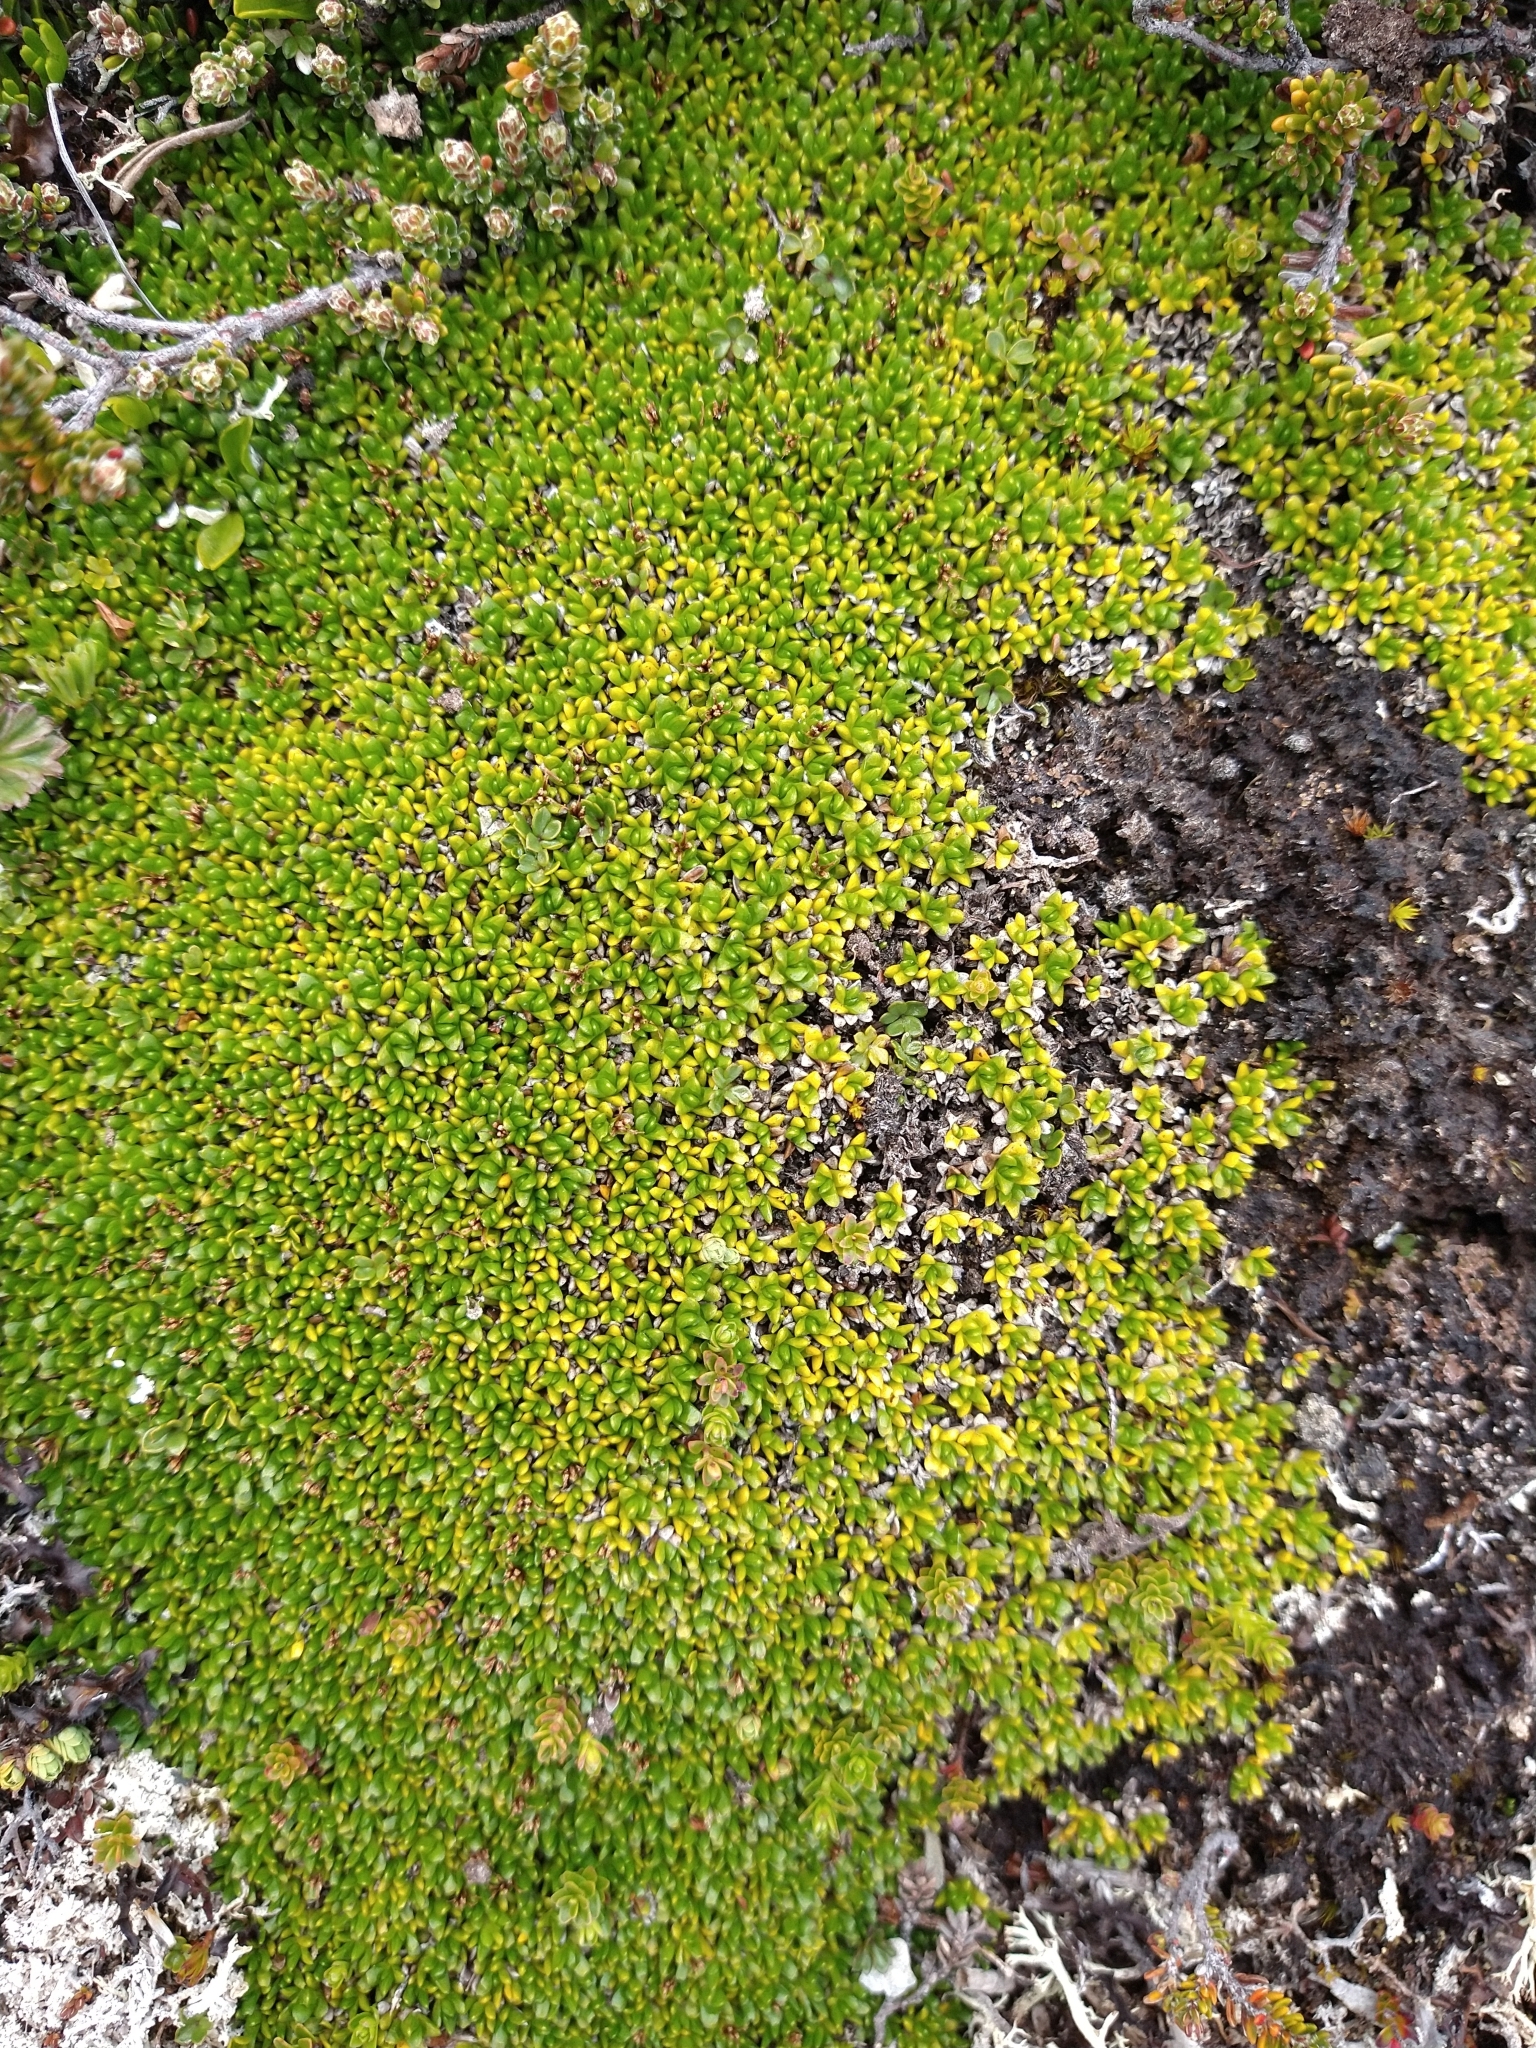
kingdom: Plantae
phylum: Tracheophyta
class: Magnoliopsida
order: Malvales
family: Thymelaeaceae
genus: Drapetes
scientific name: Drapetes muscosus
